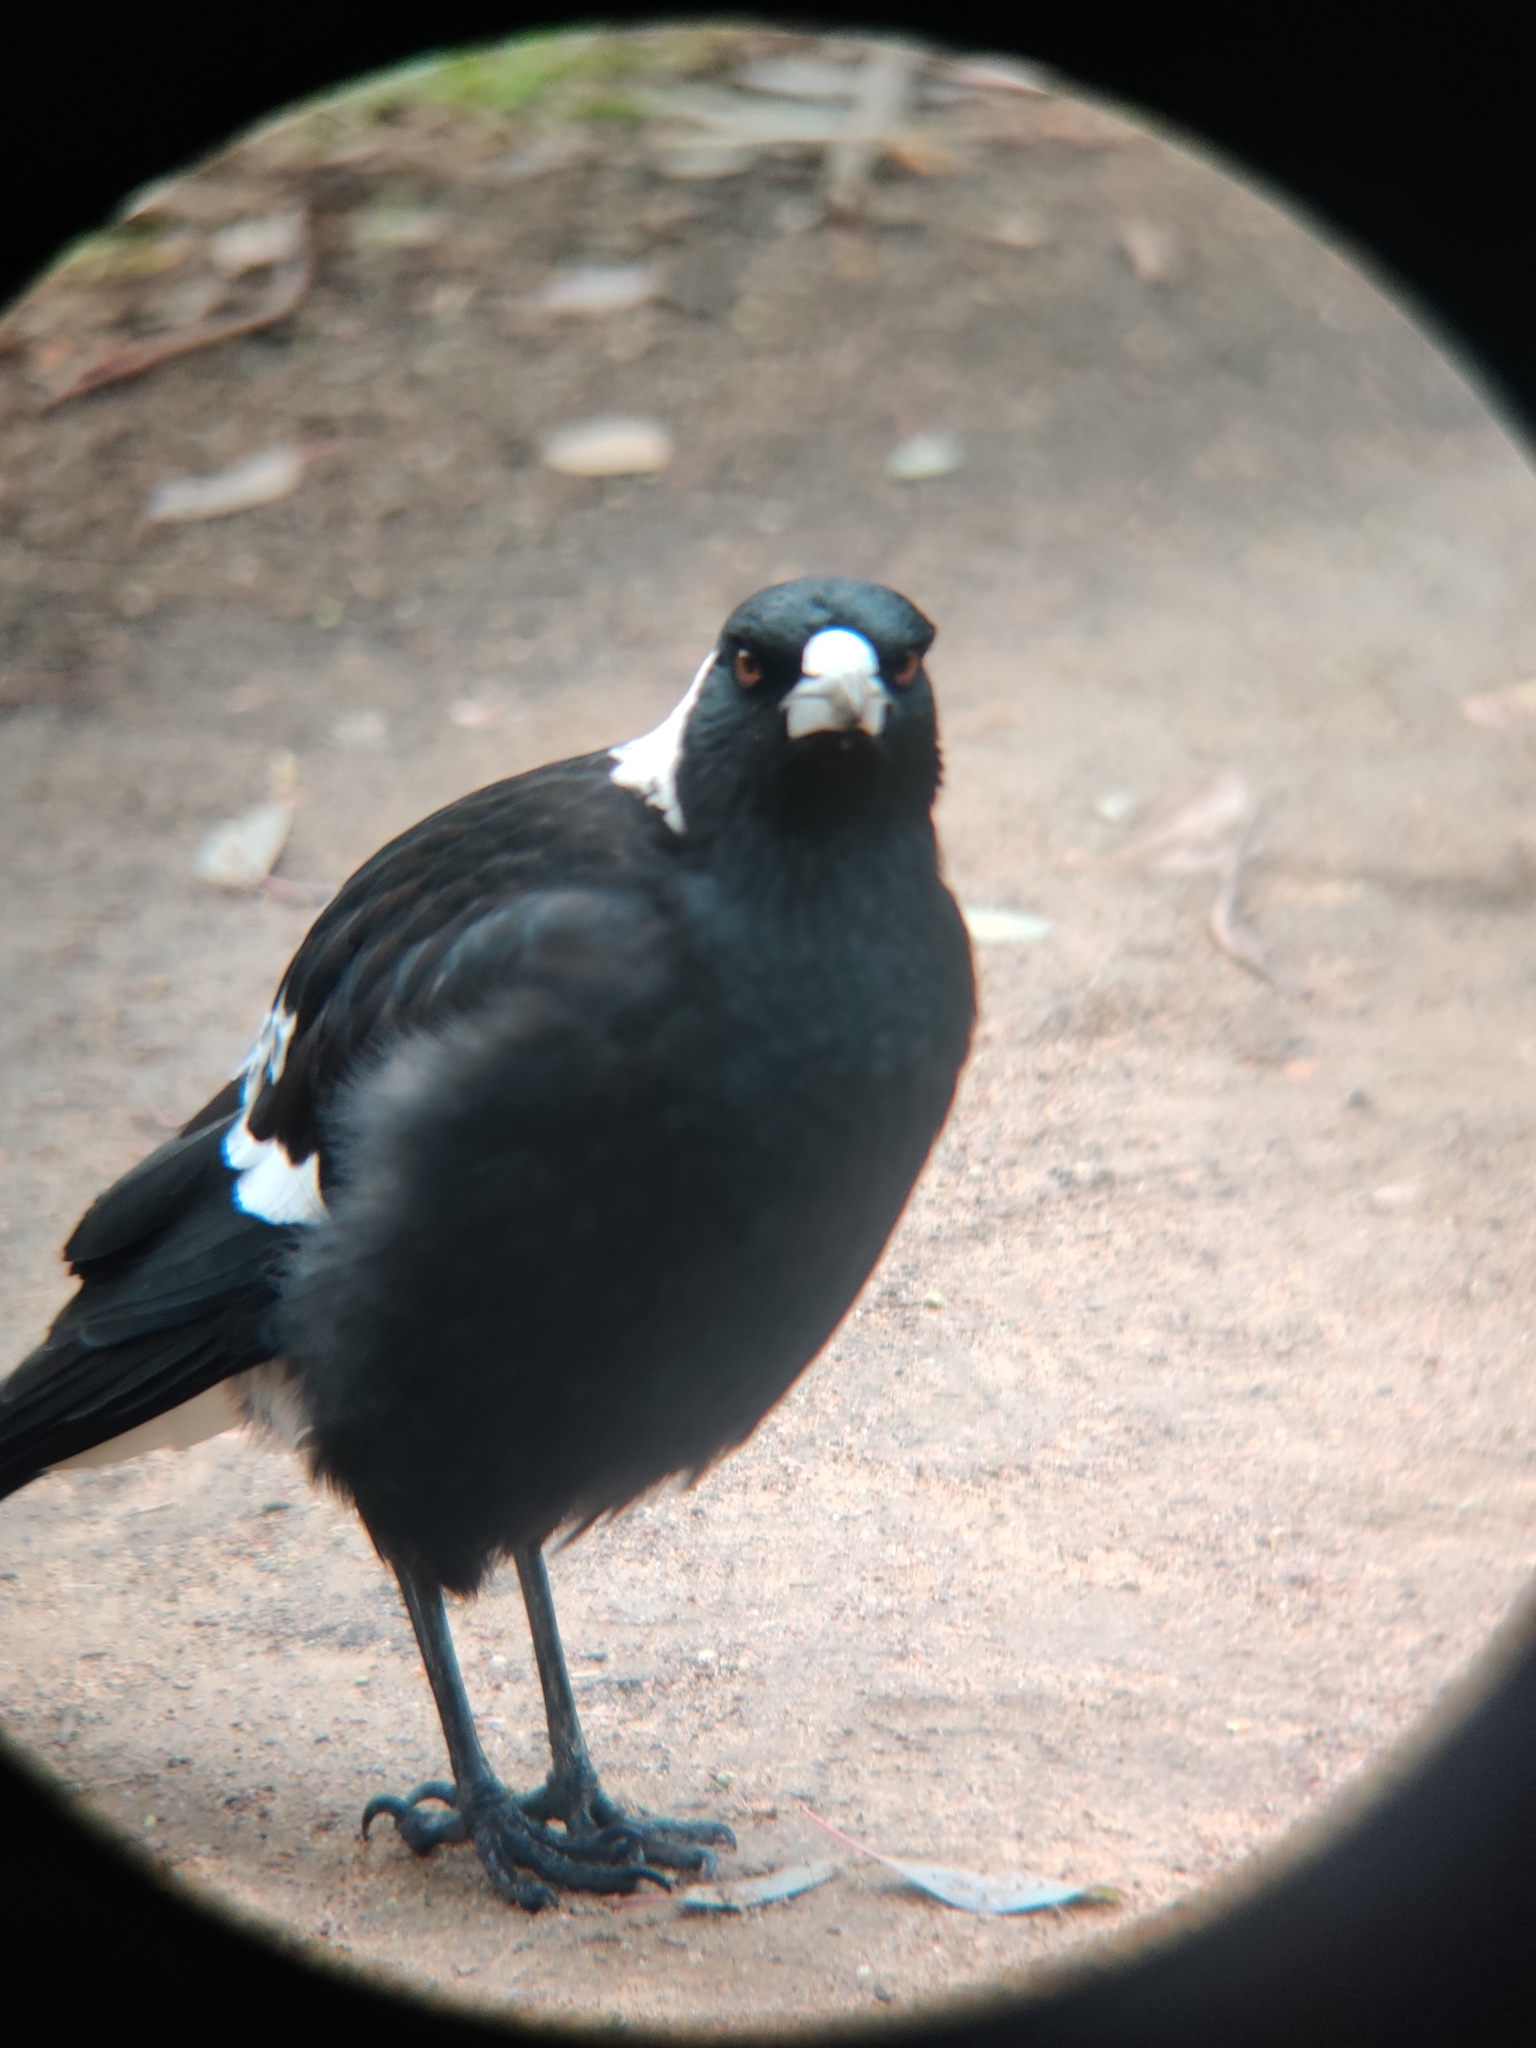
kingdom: Animalia
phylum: Chordata
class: Aves
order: Passeriformes
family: Cracticidae
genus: Gymnorhina
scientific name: Gymnorhina tibicen
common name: Australian magpie
